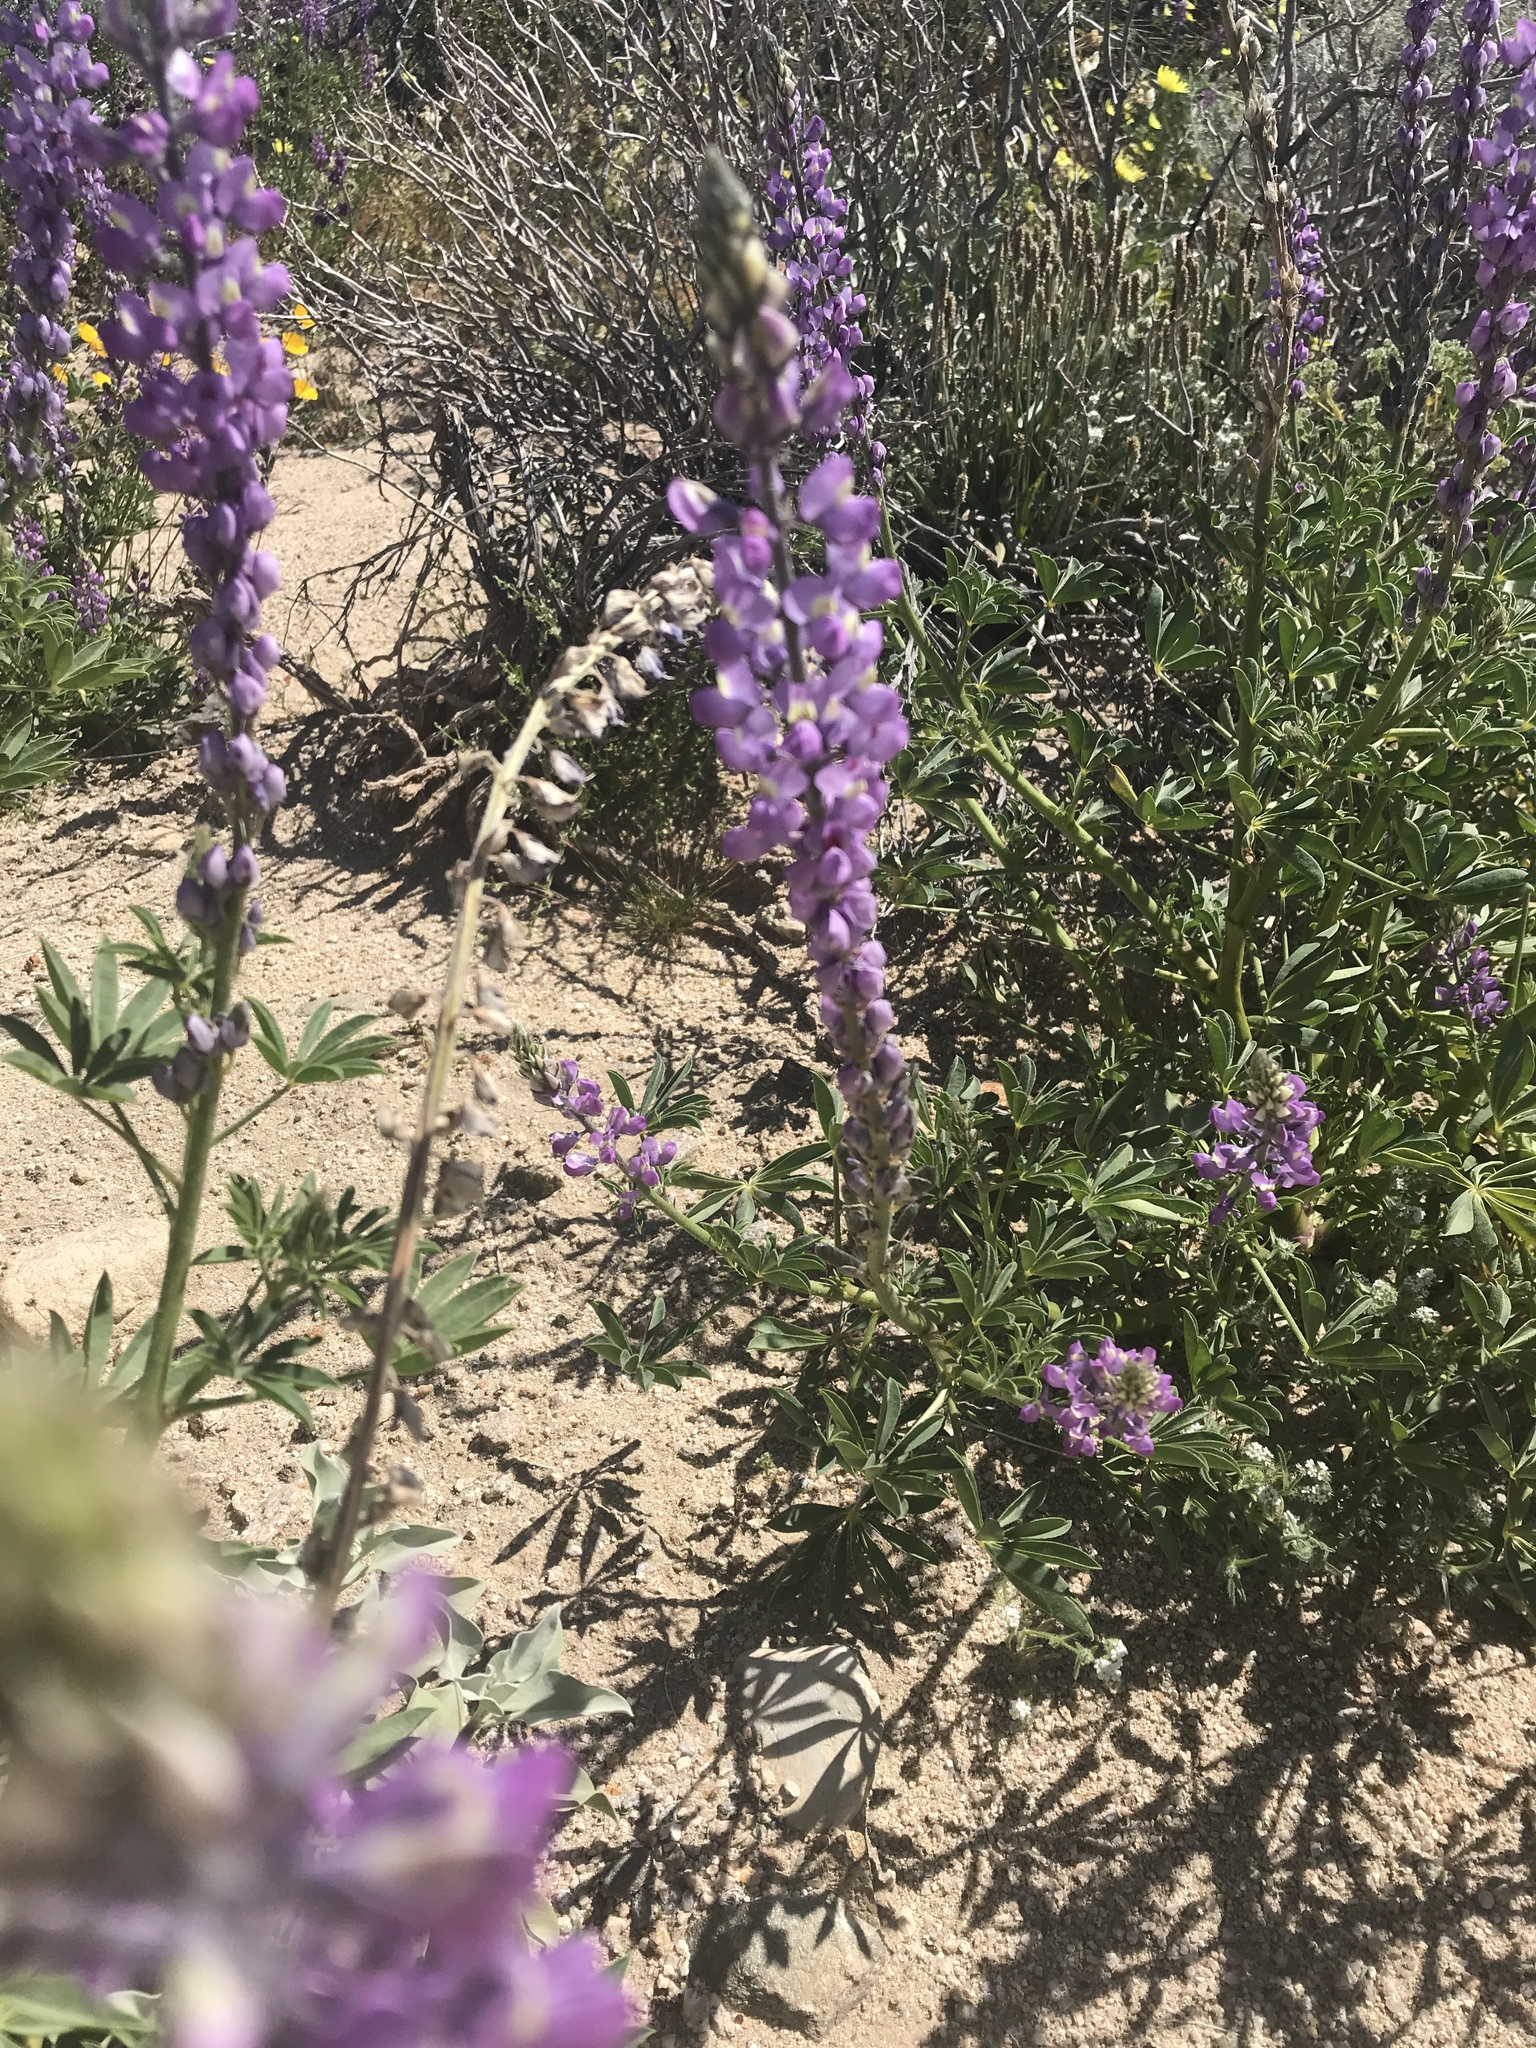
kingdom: Plantae
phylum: Tracheophyta
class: Magnoliopsida
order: Fabales
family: Fabaceae
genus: Lupinus
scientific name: Lupinus arizonicus
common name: Arizona lupine
